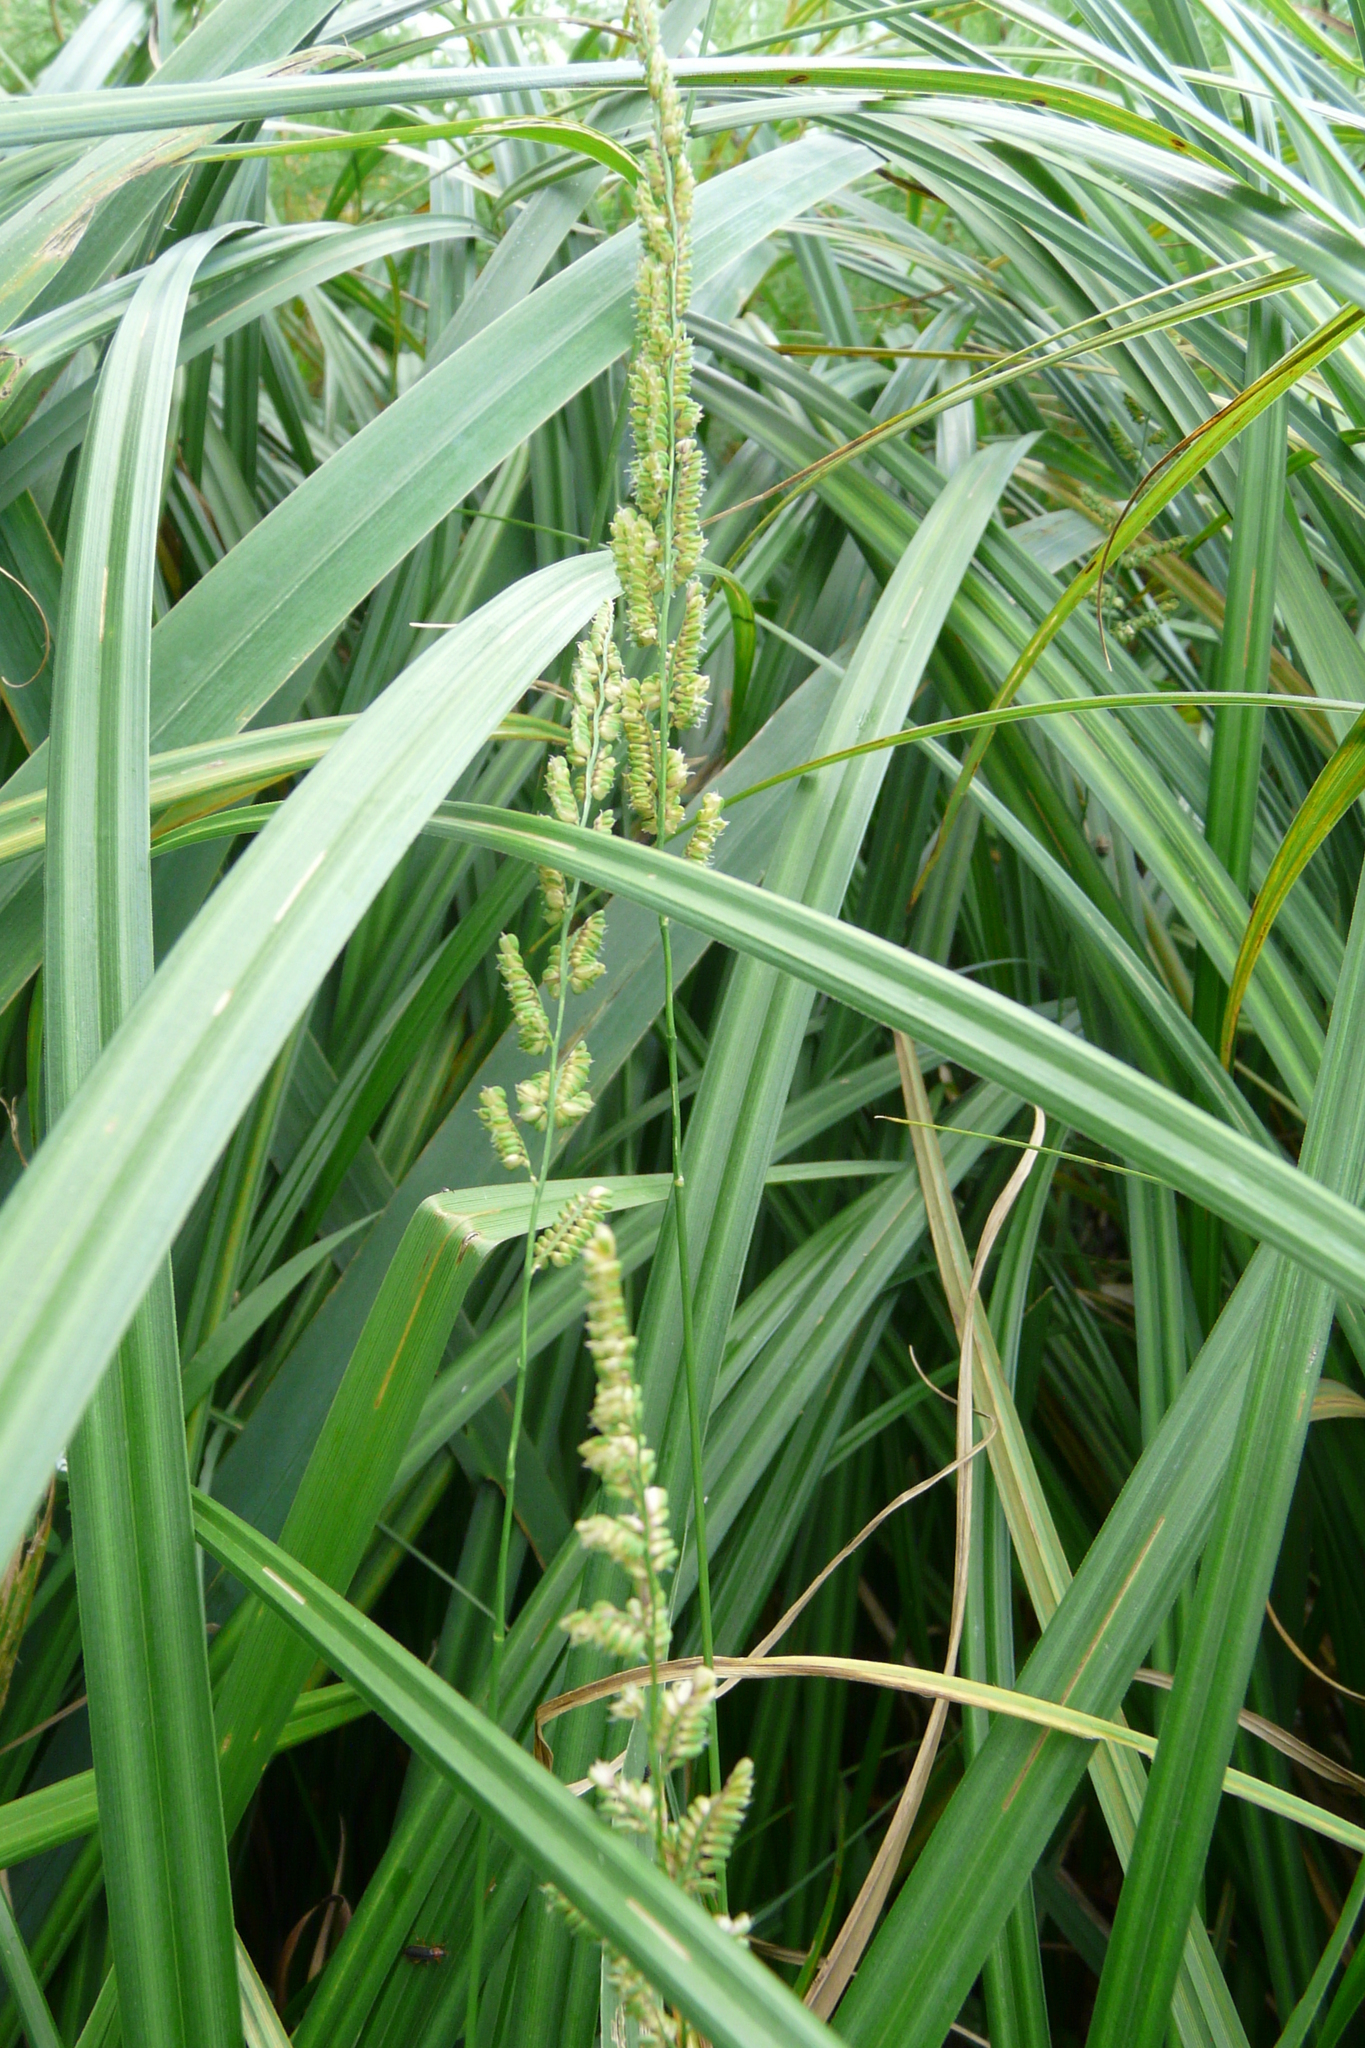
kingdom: Plantae
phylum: Tracheophyta
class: Liliopsida
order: Poales
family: Poaceae
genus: Beckmannia
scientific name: Beckmannia eruciformis
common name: European slough-grass
